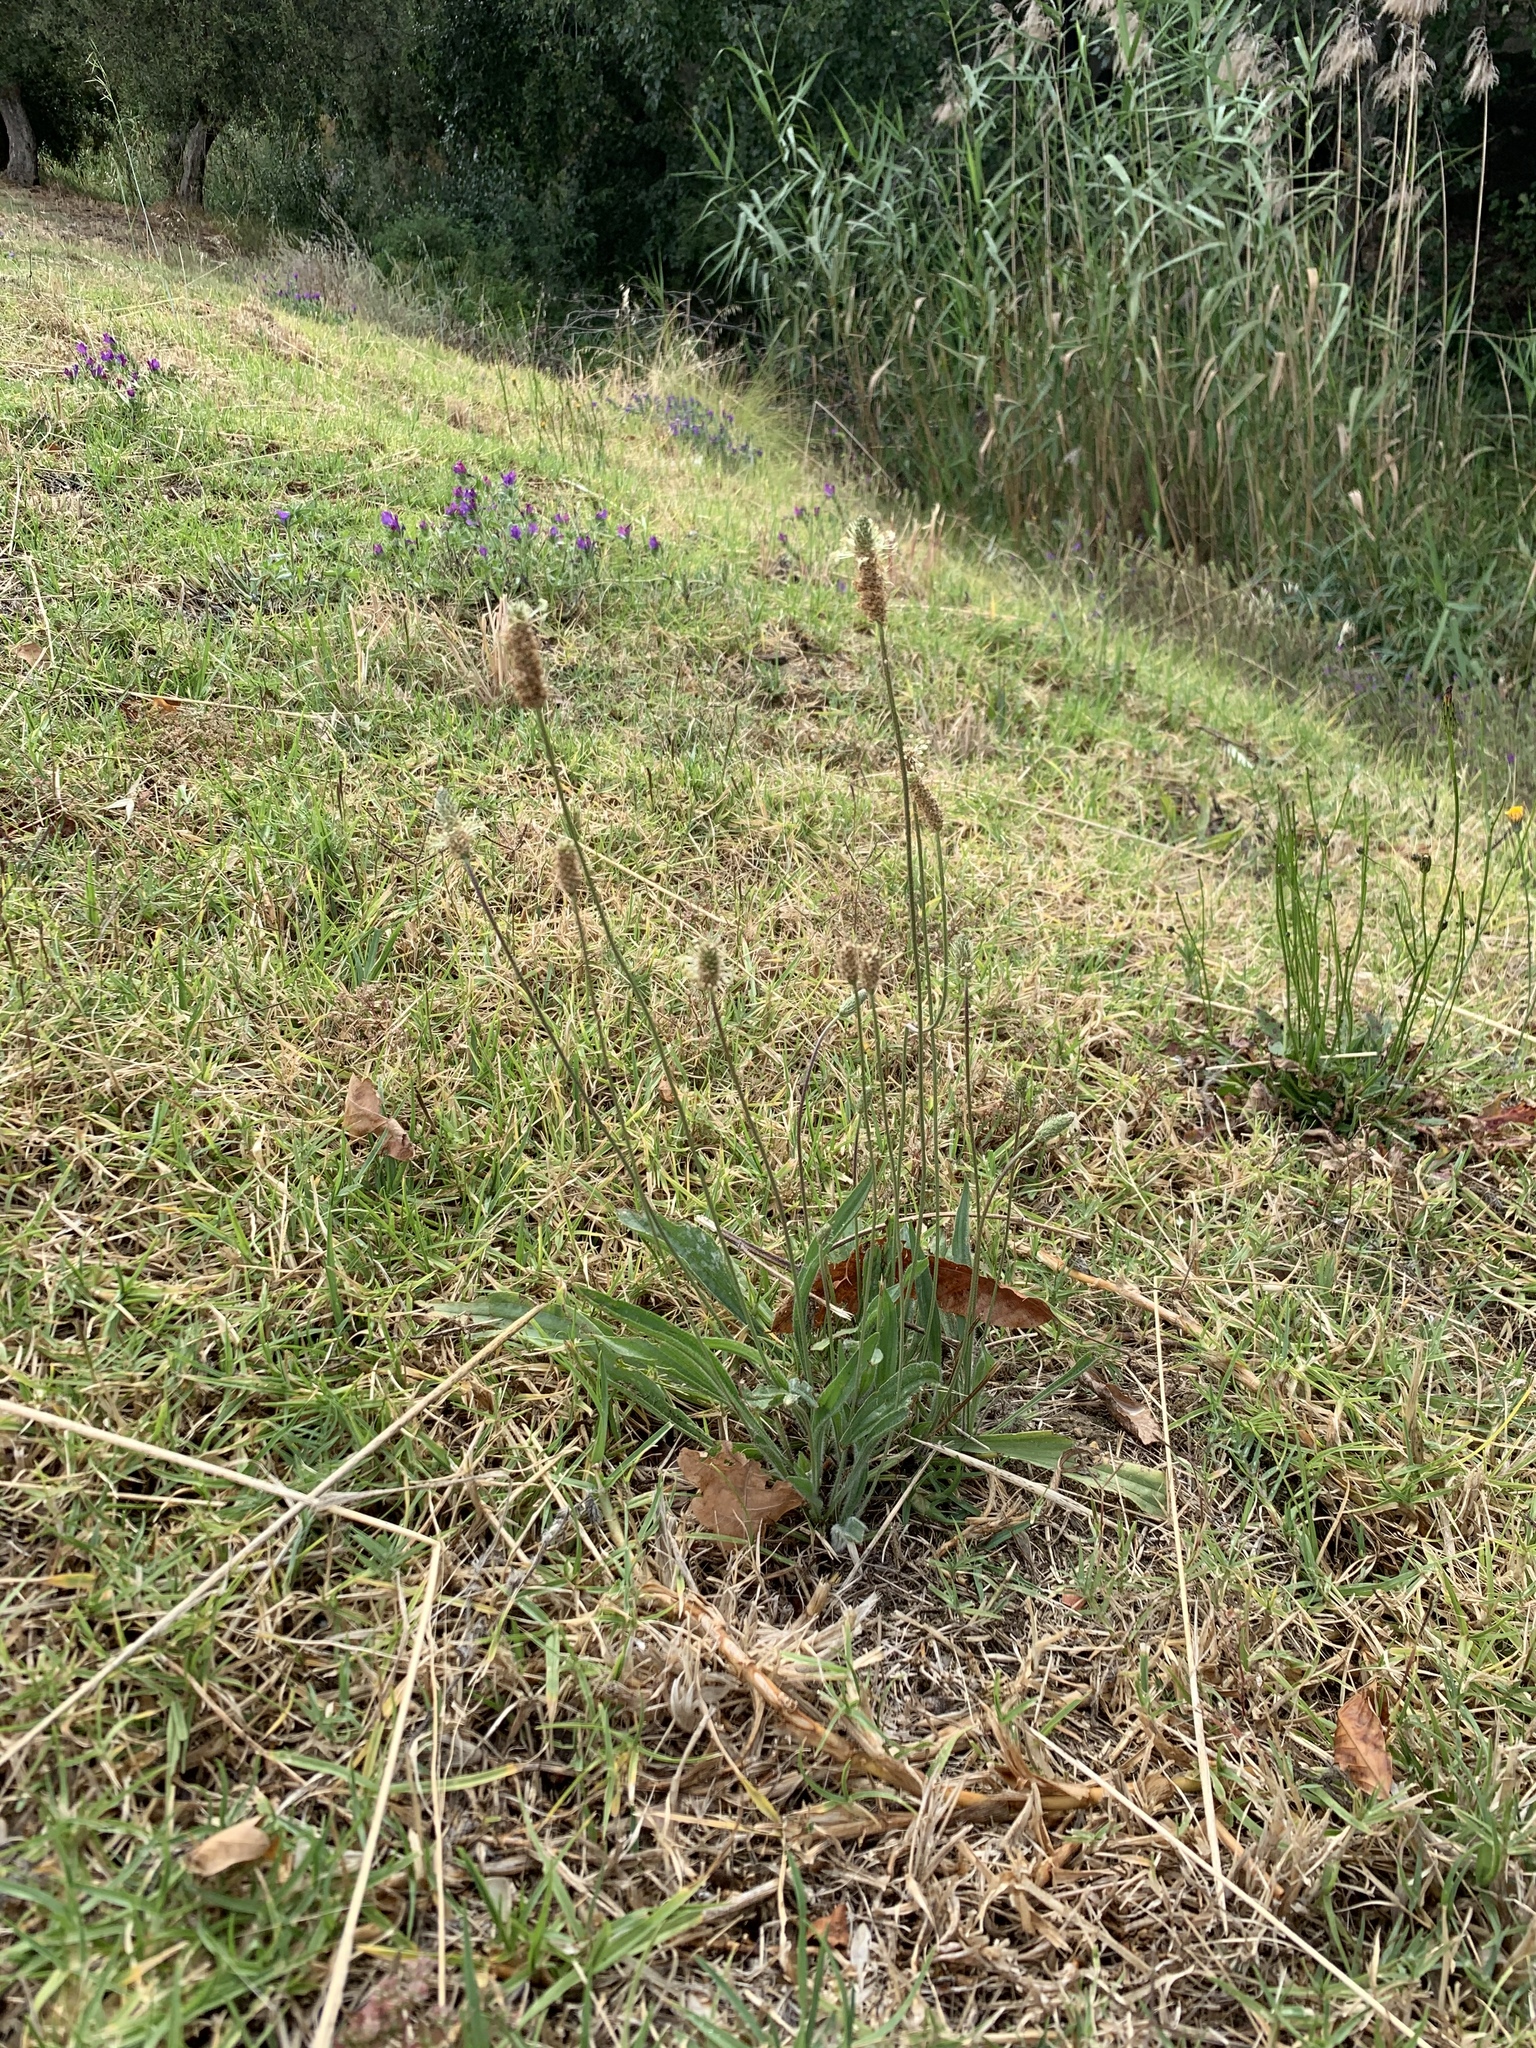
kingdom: Plantae
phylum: Tracheophyta
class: Magnoliopsida
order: Lamiales
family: Plantaginaceae
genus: Plantago
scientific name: Plantago lanceolata
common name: Ribwort plantain
